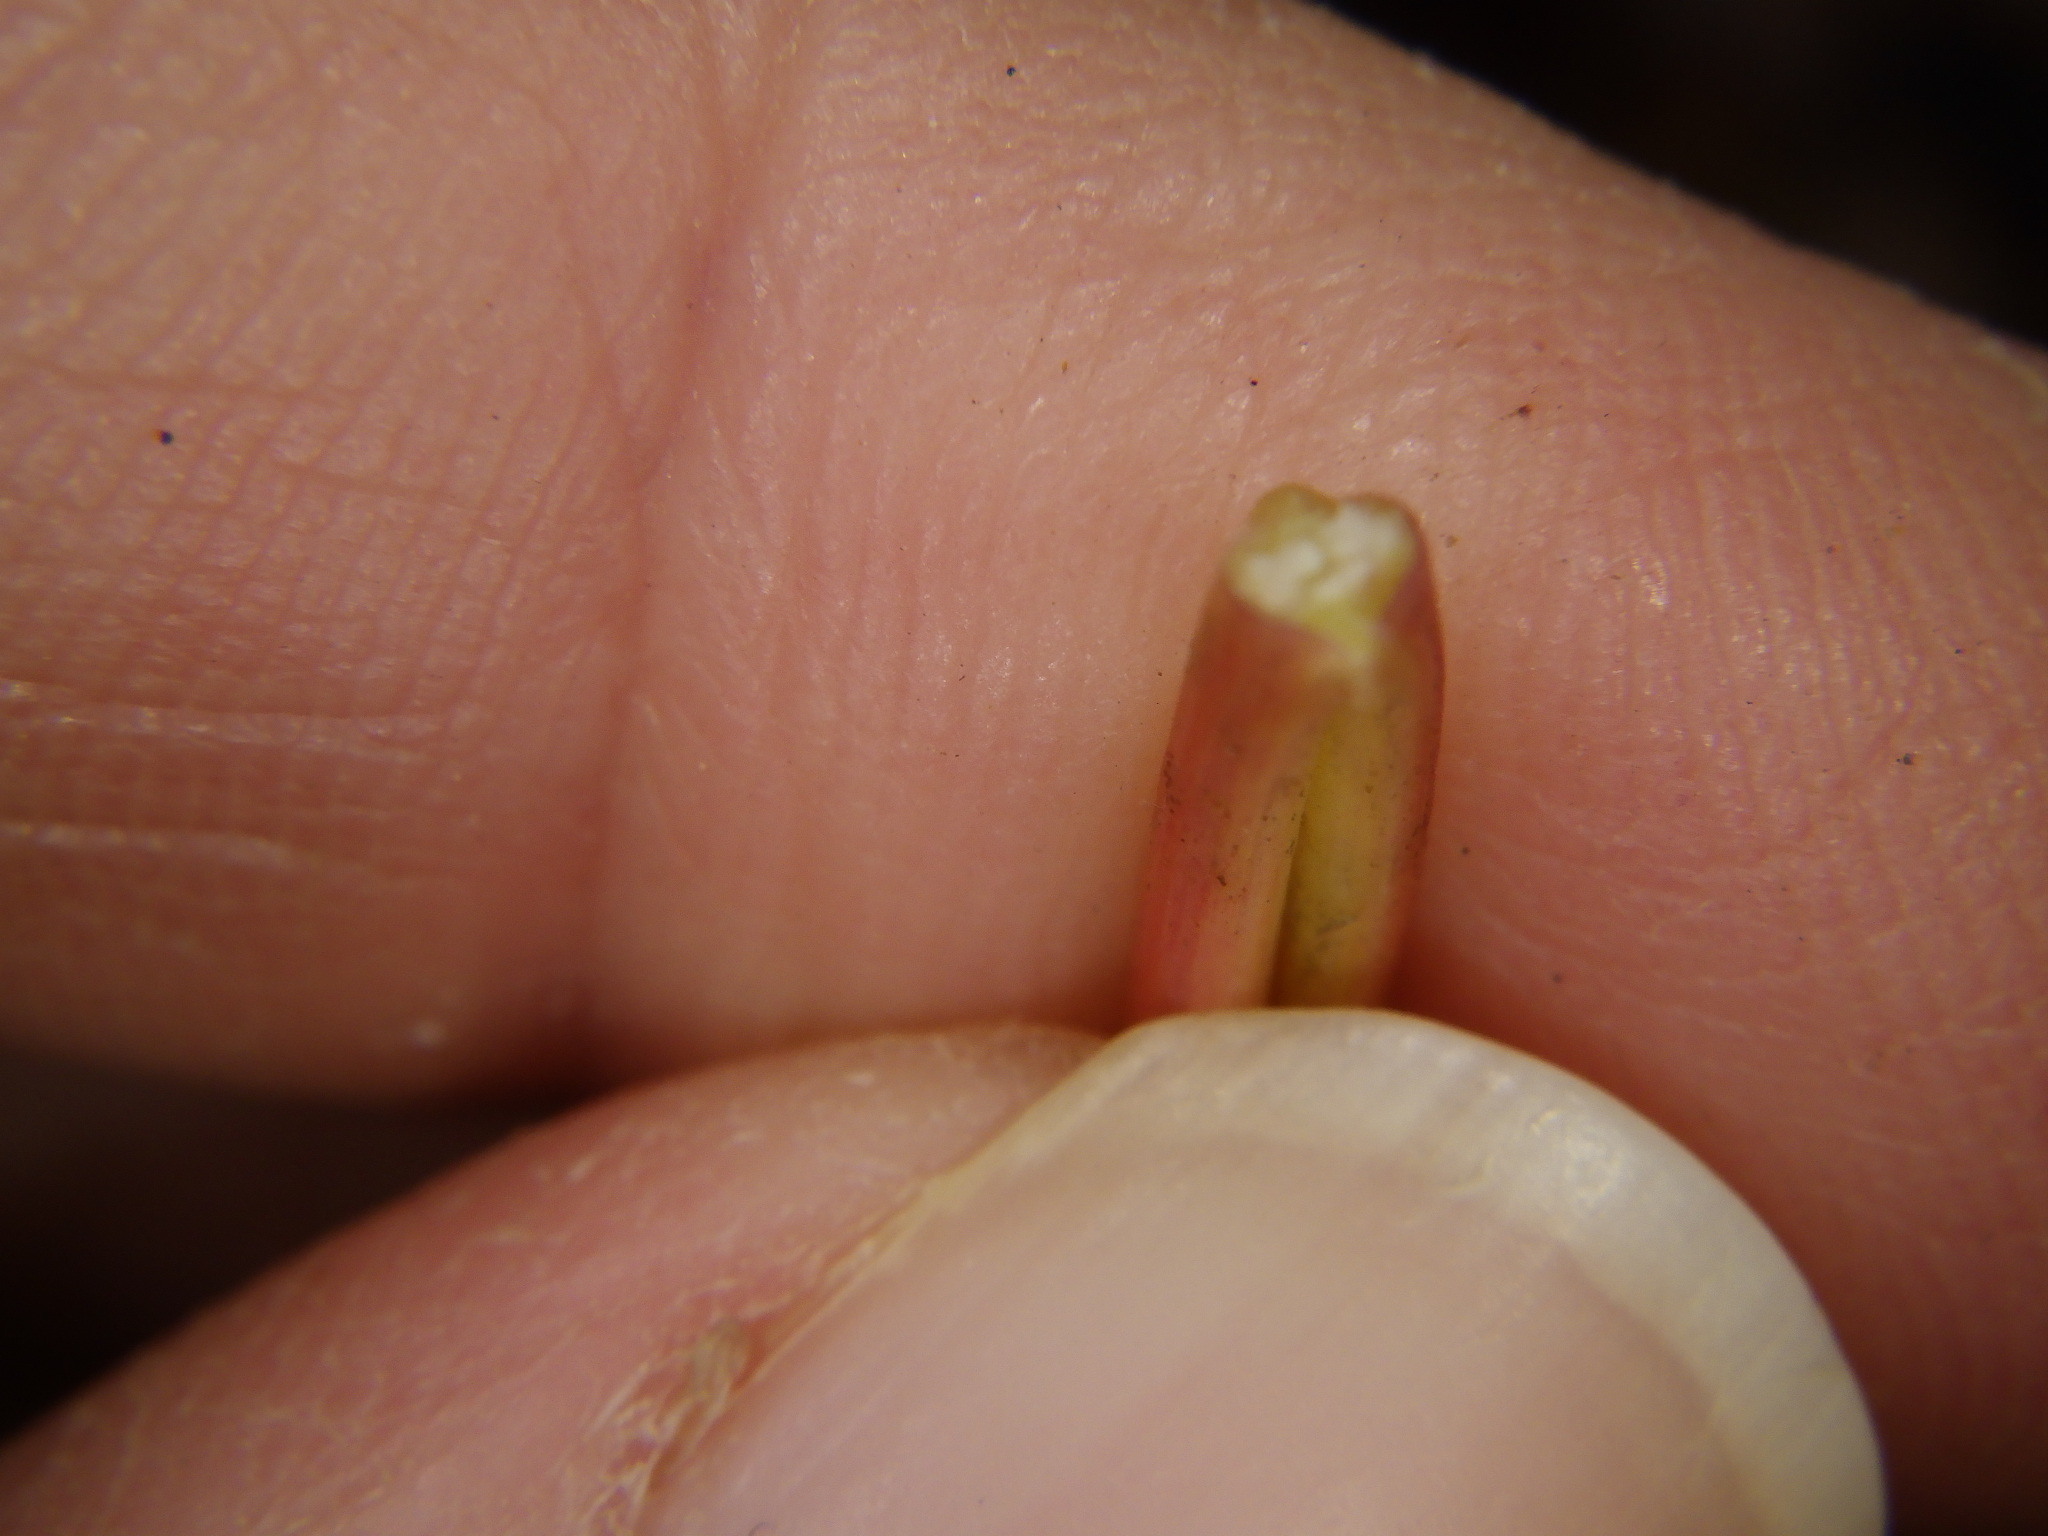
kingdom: Plantae
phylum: Tracheophyta
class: Magnoliopsida
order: Sapindales
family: Sapindaceae
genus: Acer
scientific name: Acer saccharum
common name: Sugar maple
